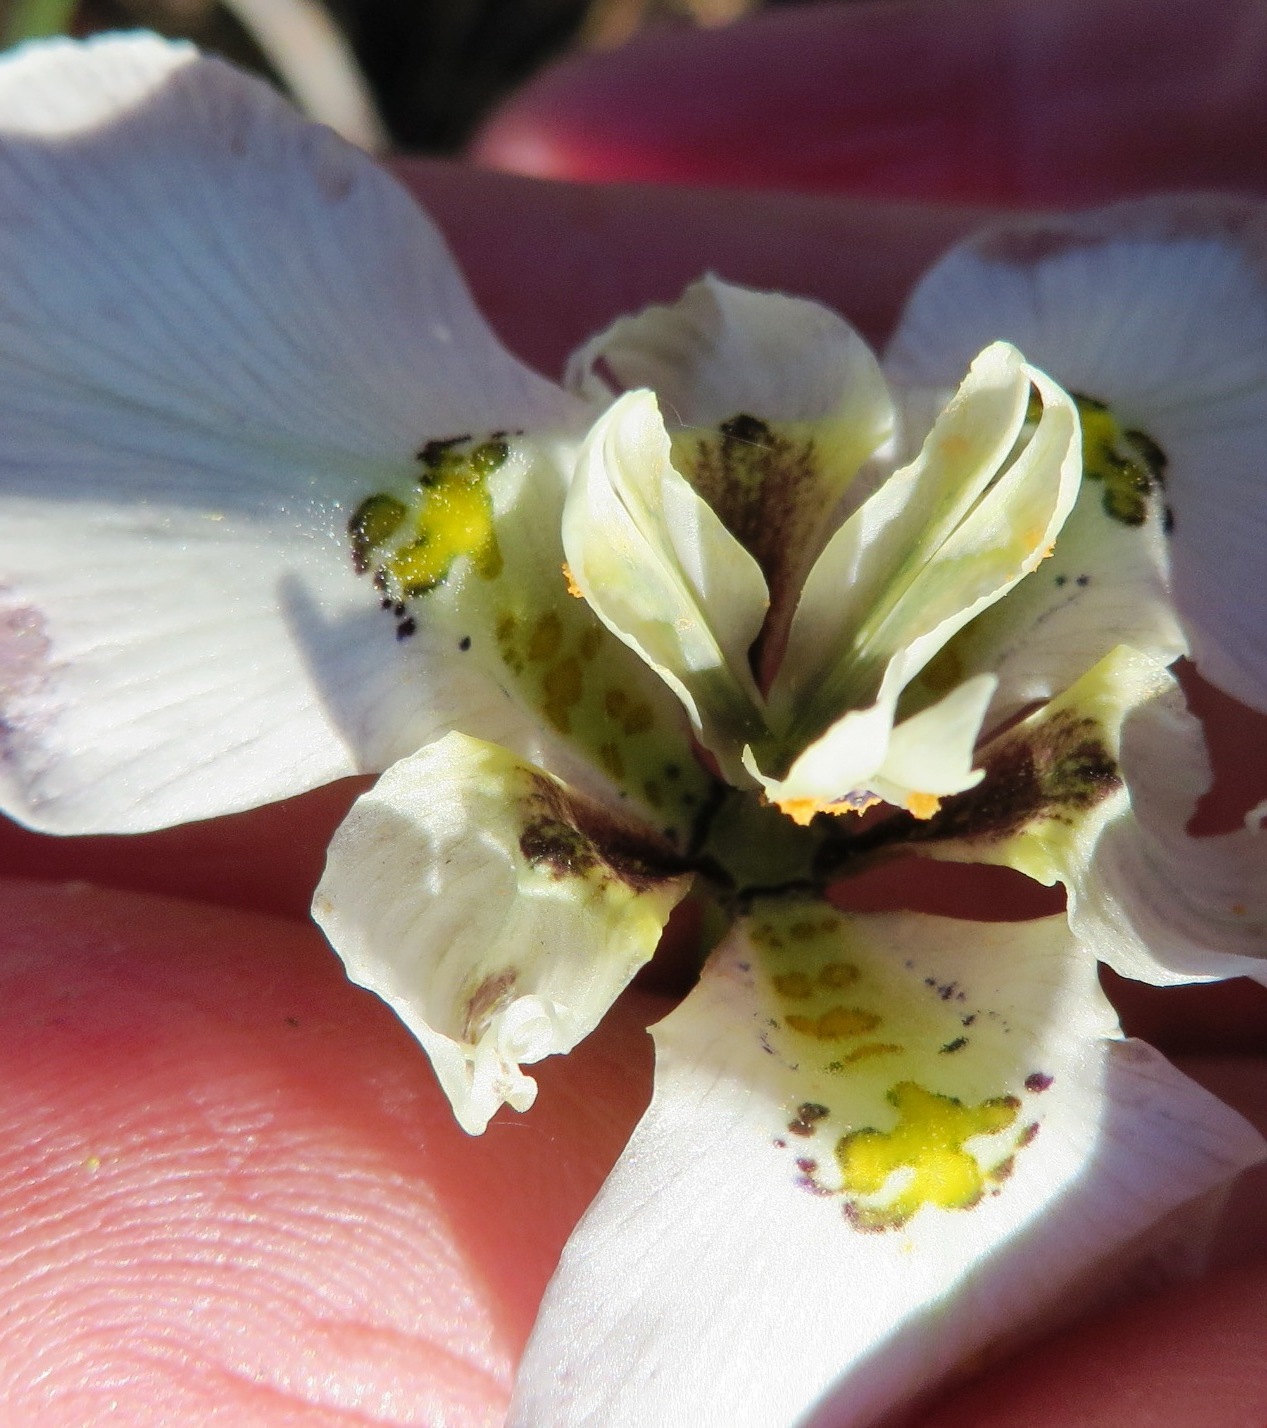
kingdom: Plantae
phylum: Tracheophyta
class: Liliopsida
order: Asparagales
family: Iridaceae
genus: Moraea
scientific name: Moraea cantharophila
